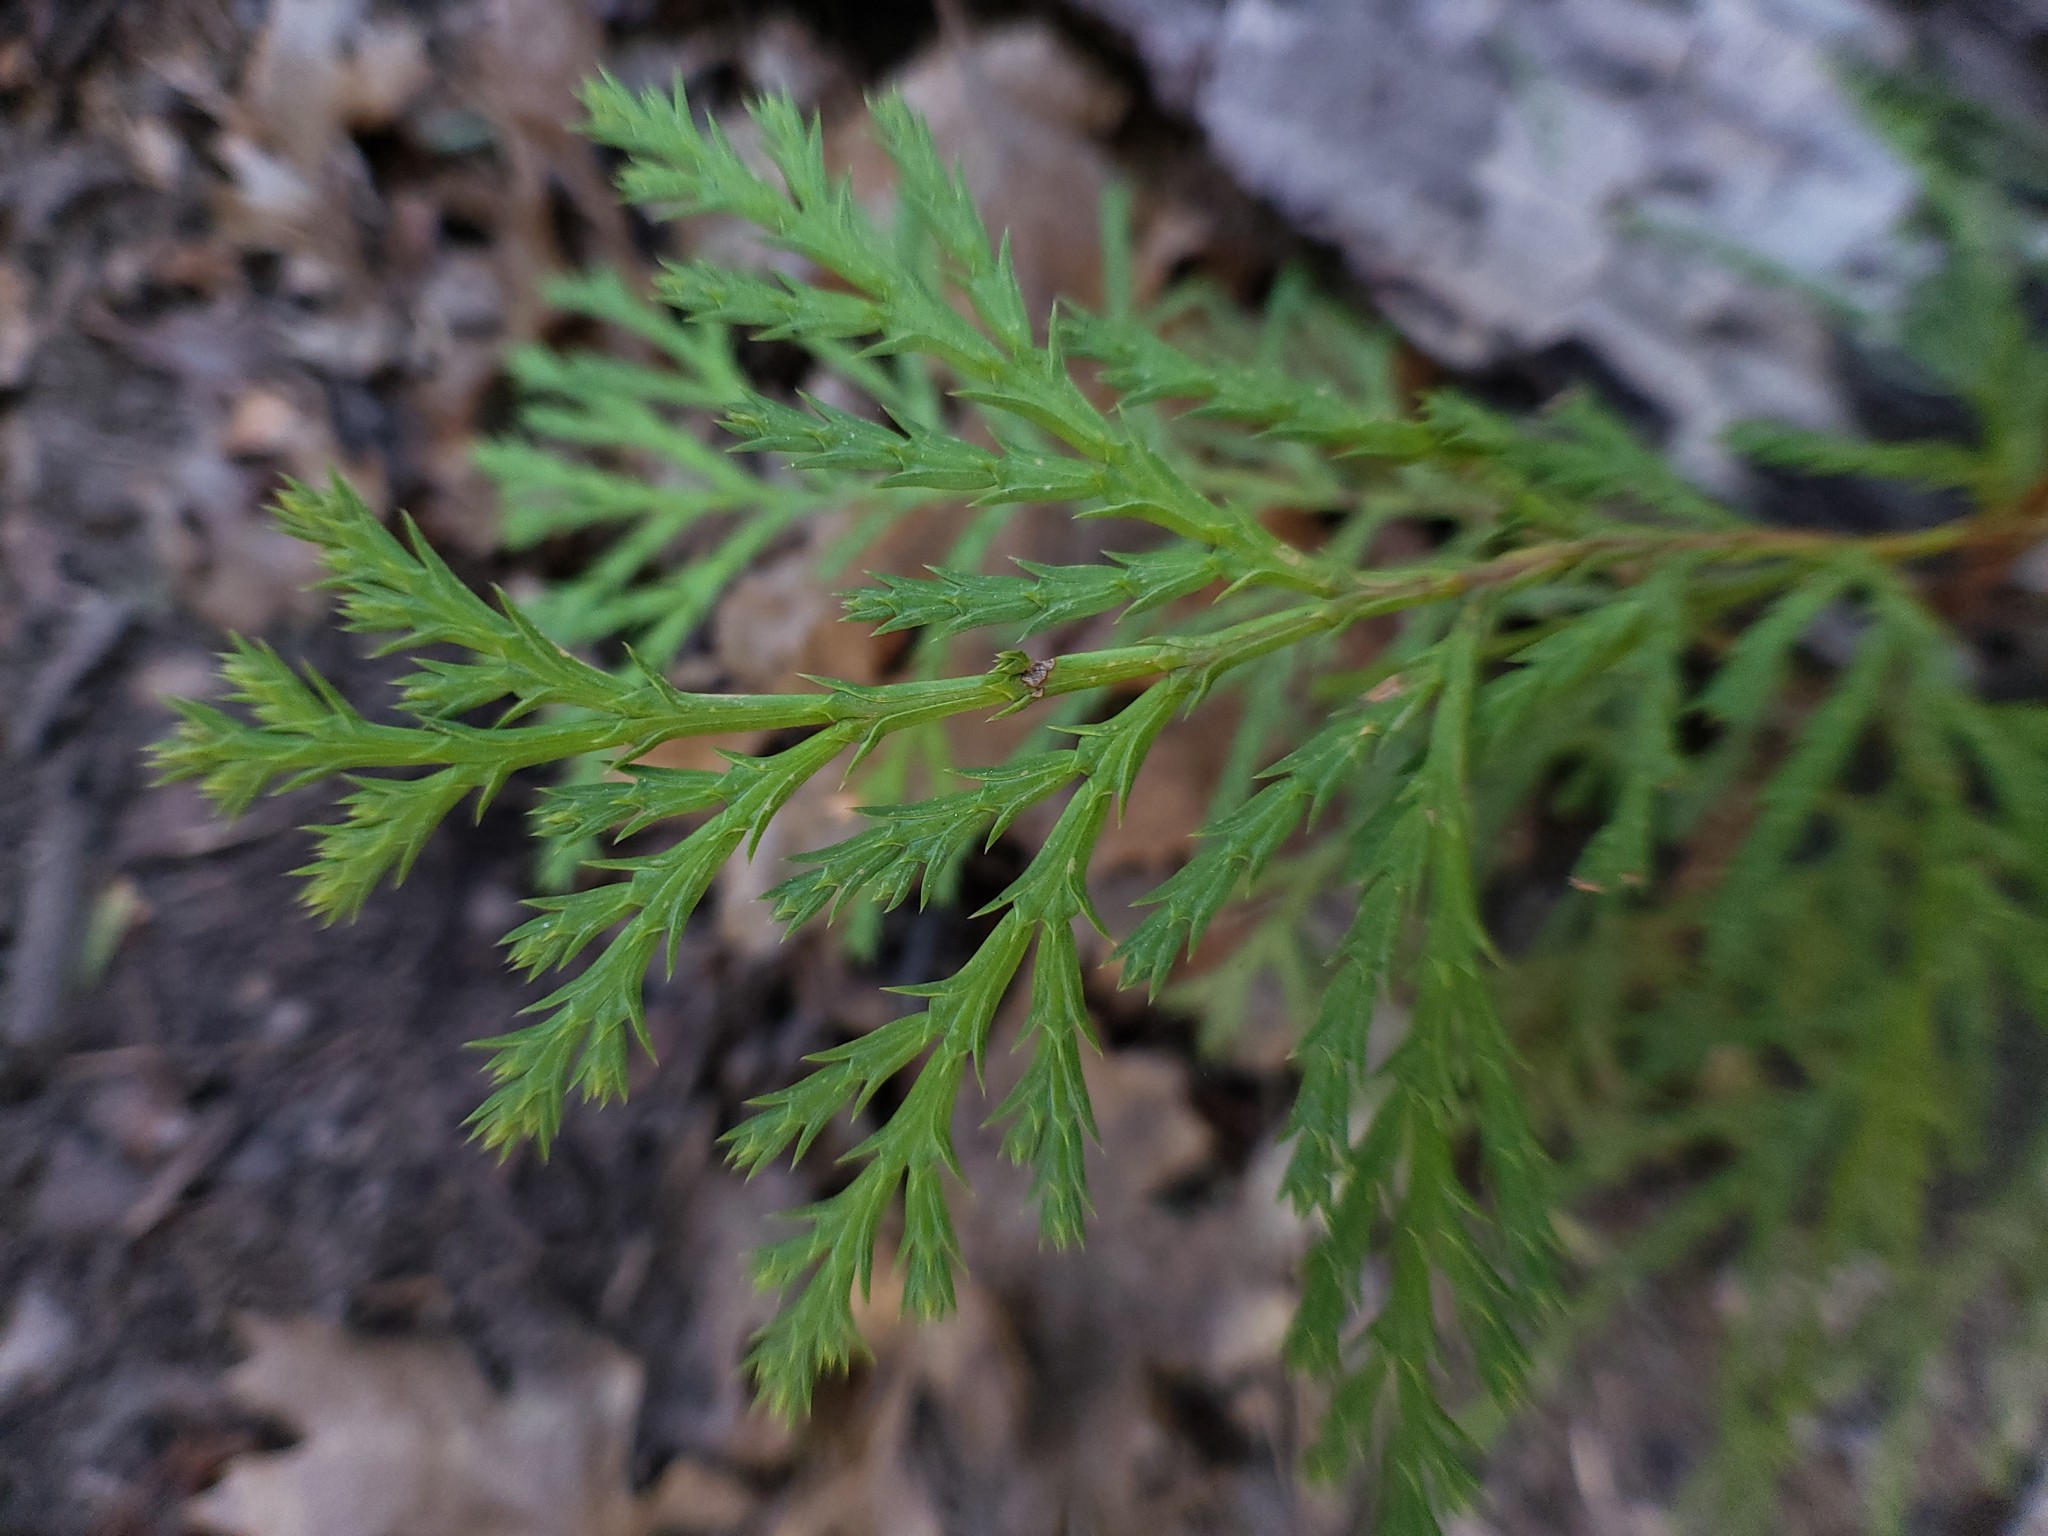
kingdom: Plantae
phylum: Tracheophyta
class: Pinopsida
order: Pinales
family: Cupressaceae
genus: Calocedrus
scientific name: Calocedrus decurrens
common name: Californian incense-cedar
